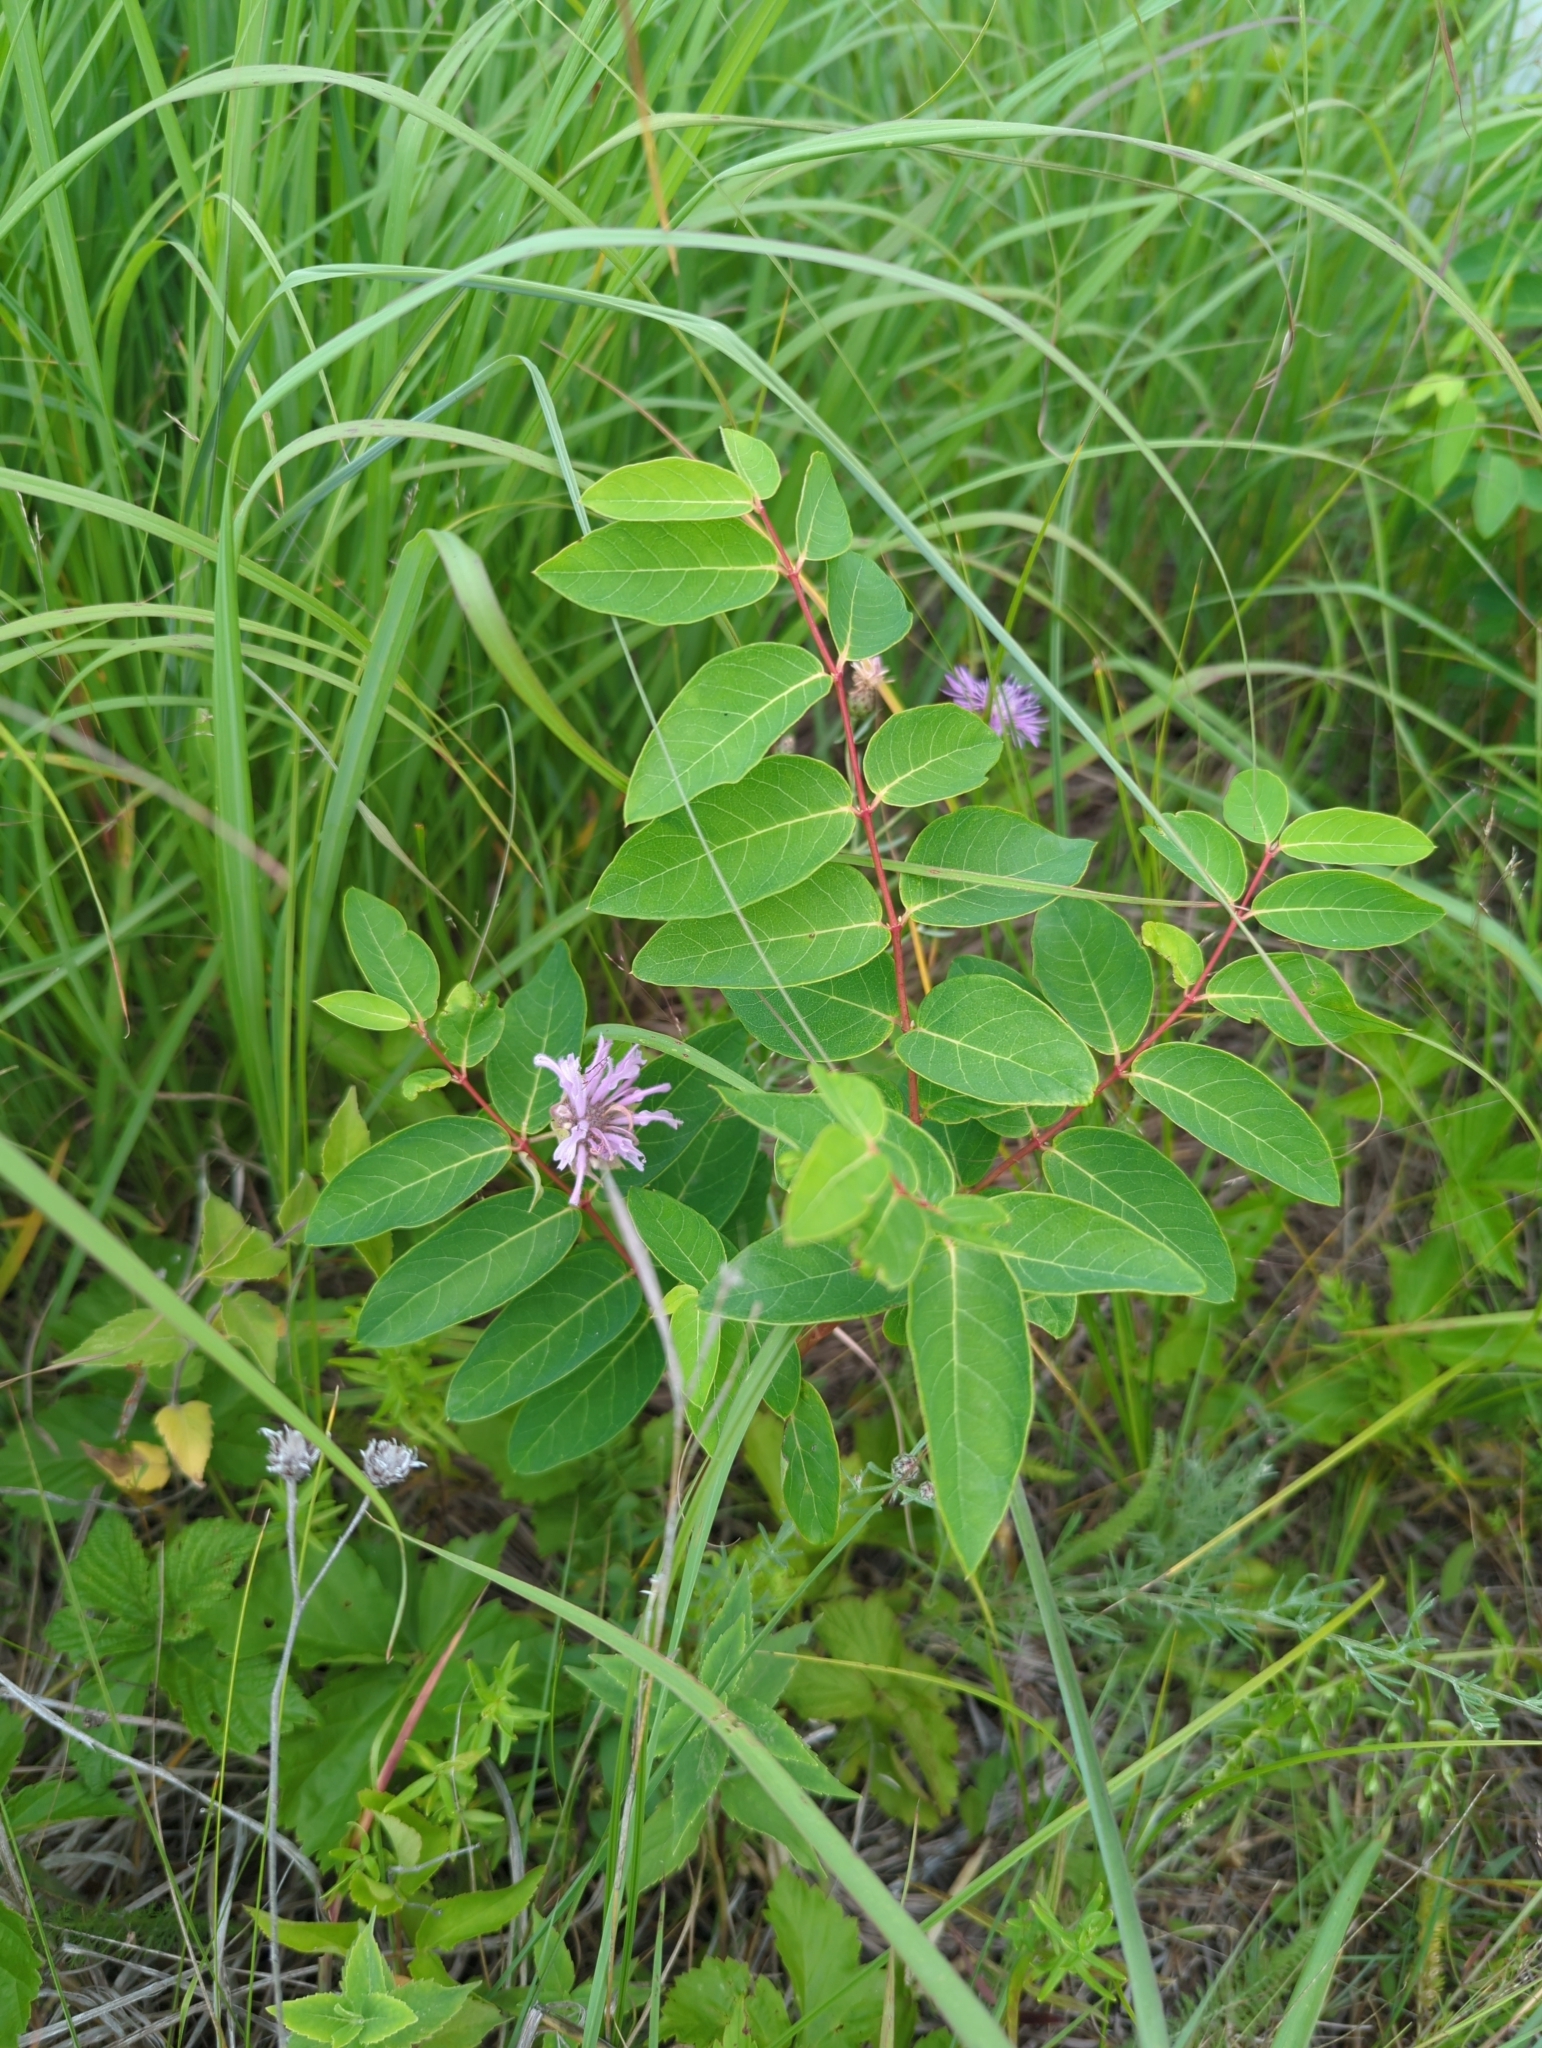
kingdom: Plantae
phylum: Tracheophyta
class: Magnoliopsida
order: Gentianales
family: Apocynaceae
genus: Apocynum
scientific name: Apocynum androsaemifolium
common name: Spreading dogbane
